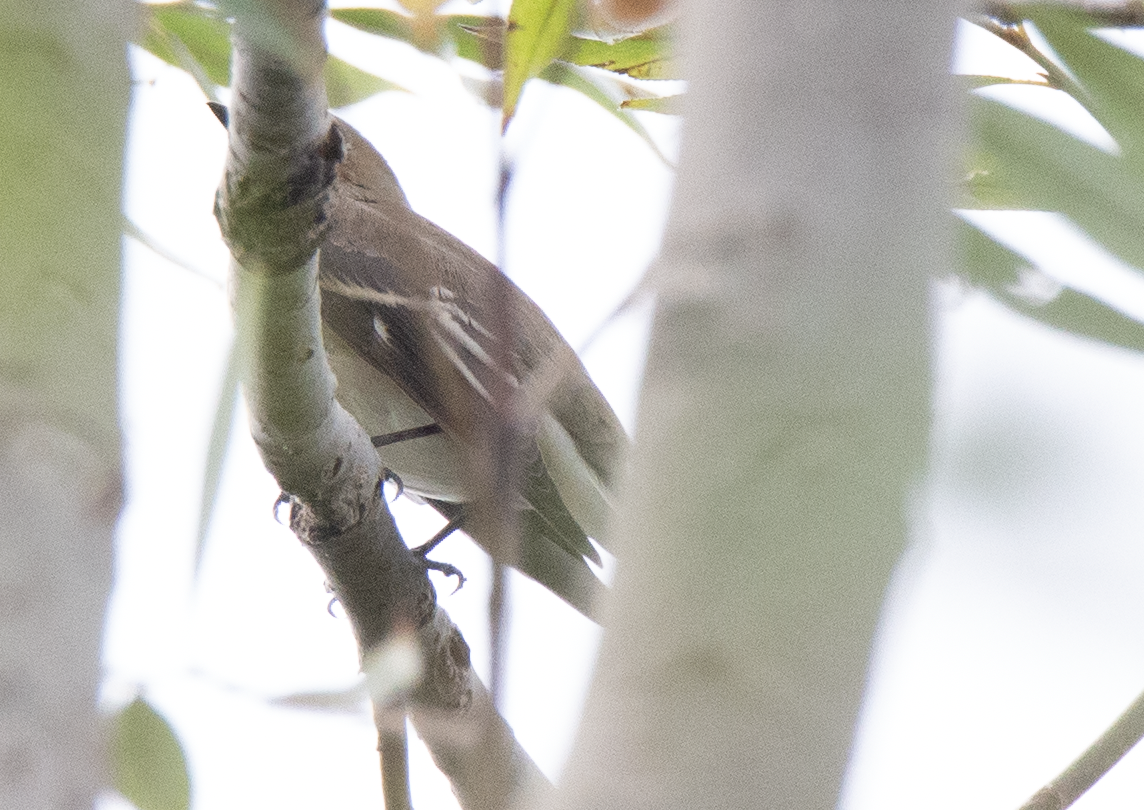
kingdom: Animalia
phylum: Chordata
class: Aves
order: Passeriformes
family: Muscicapidae
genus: Ficedula
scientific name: Ficedula hypoleuca
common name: European pied flycatcher
